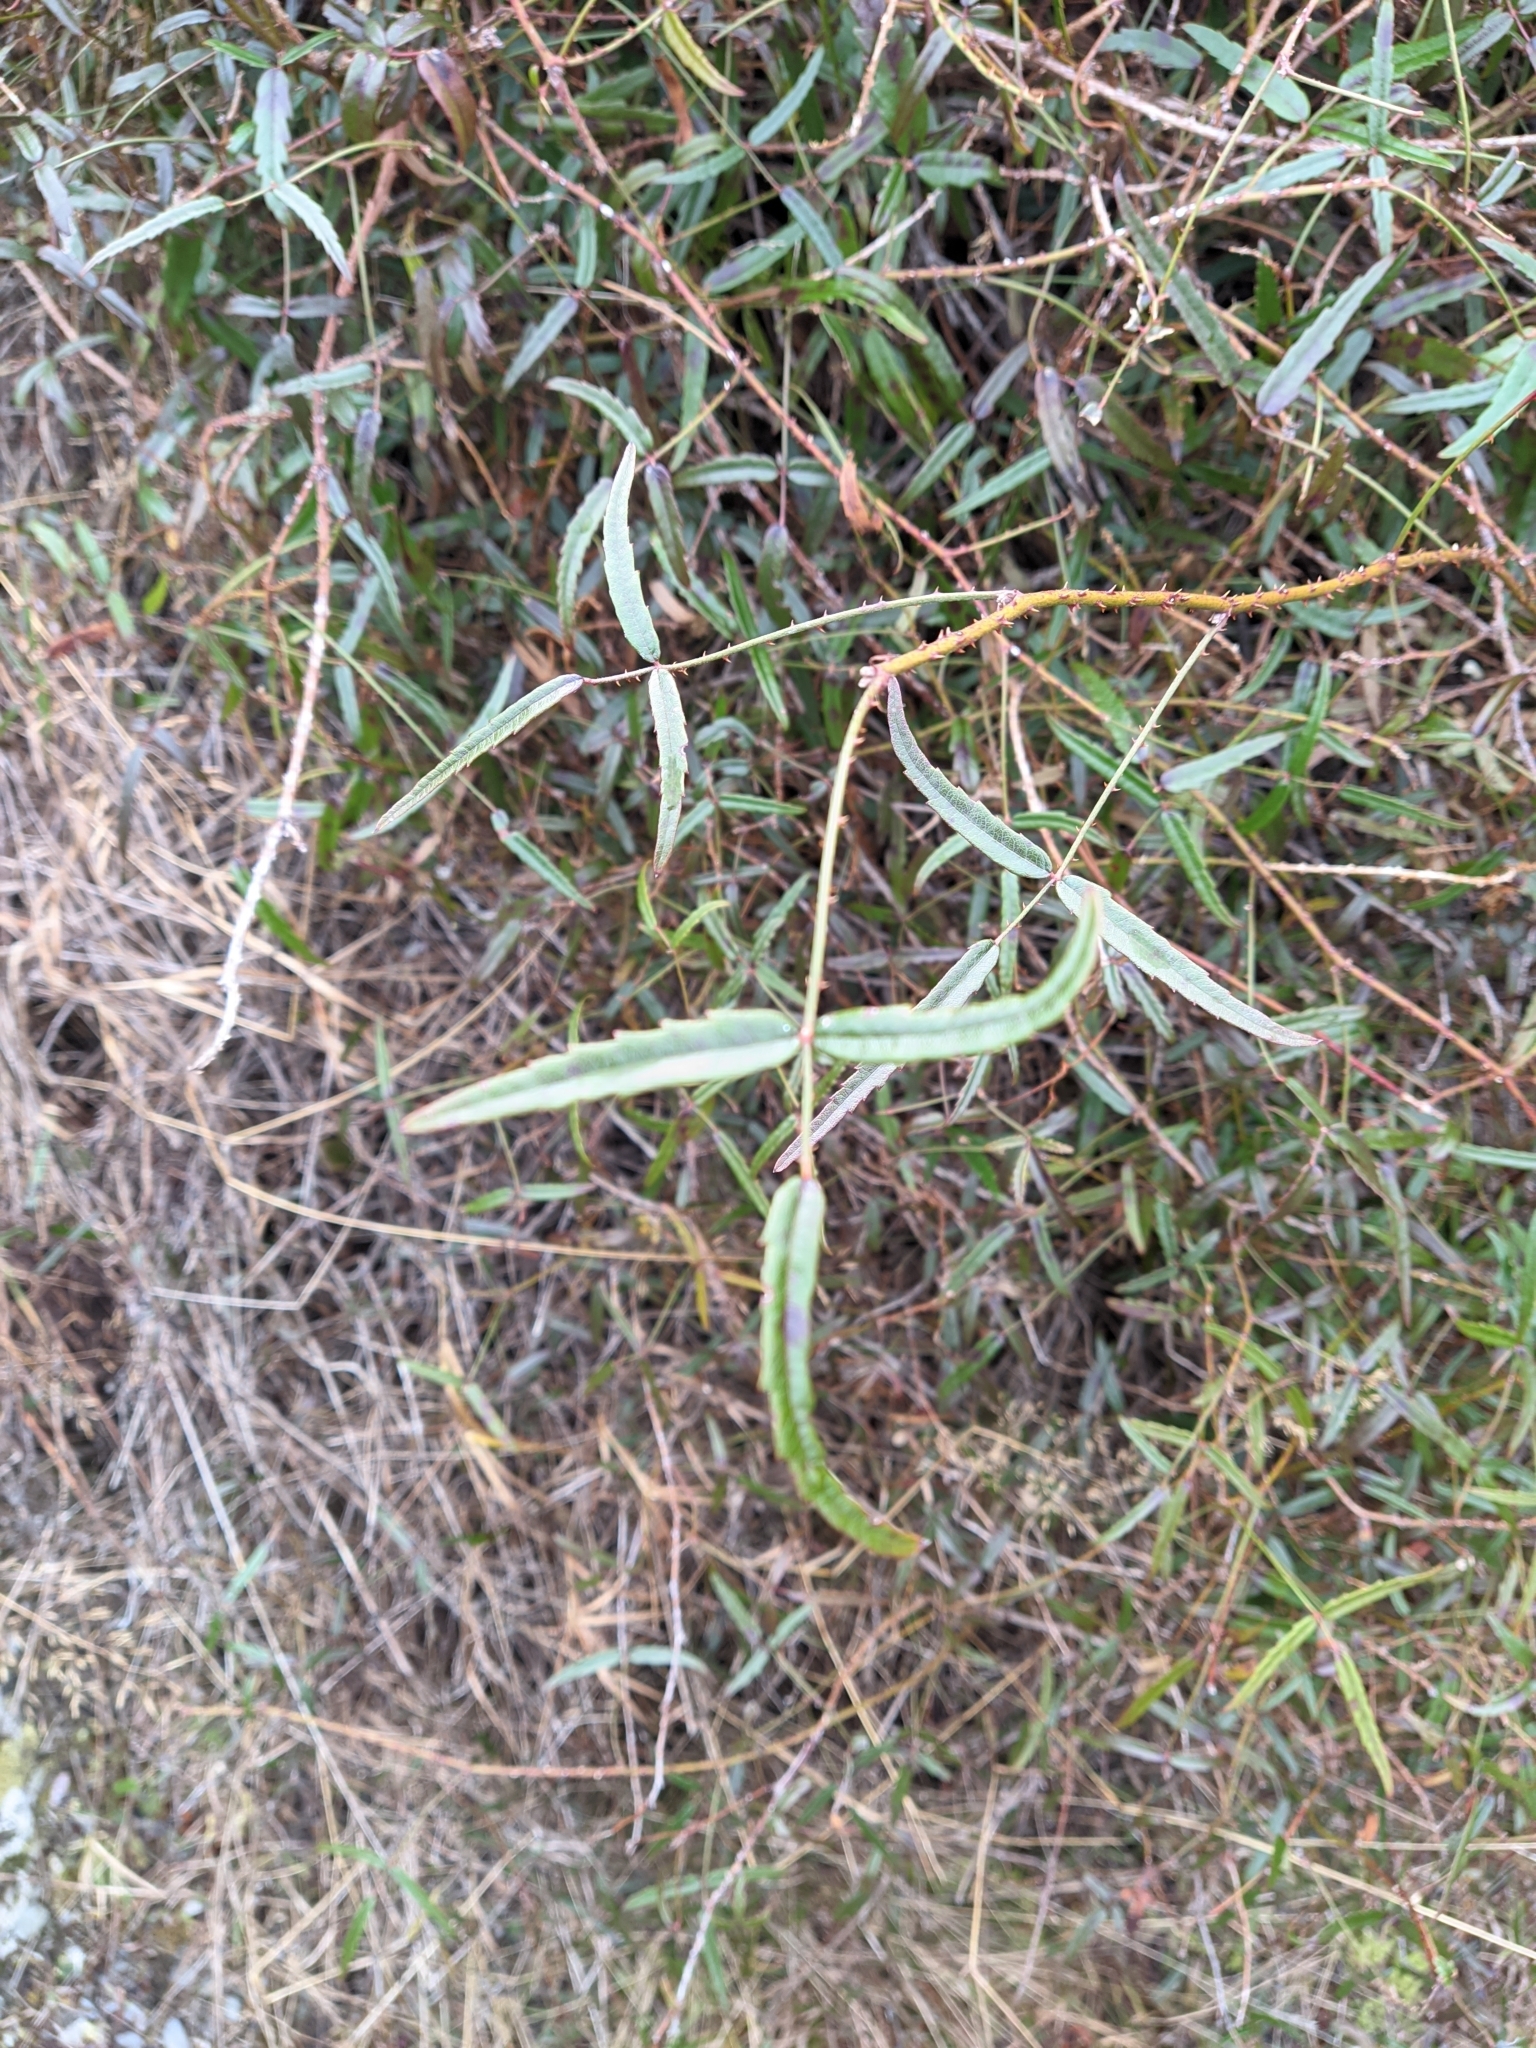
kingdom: Plantae
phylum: Tracheophyta
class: Magnoliopsida
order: Rosales
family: Rosaceae
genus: Rubus
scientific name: Rubus schmidelioides
